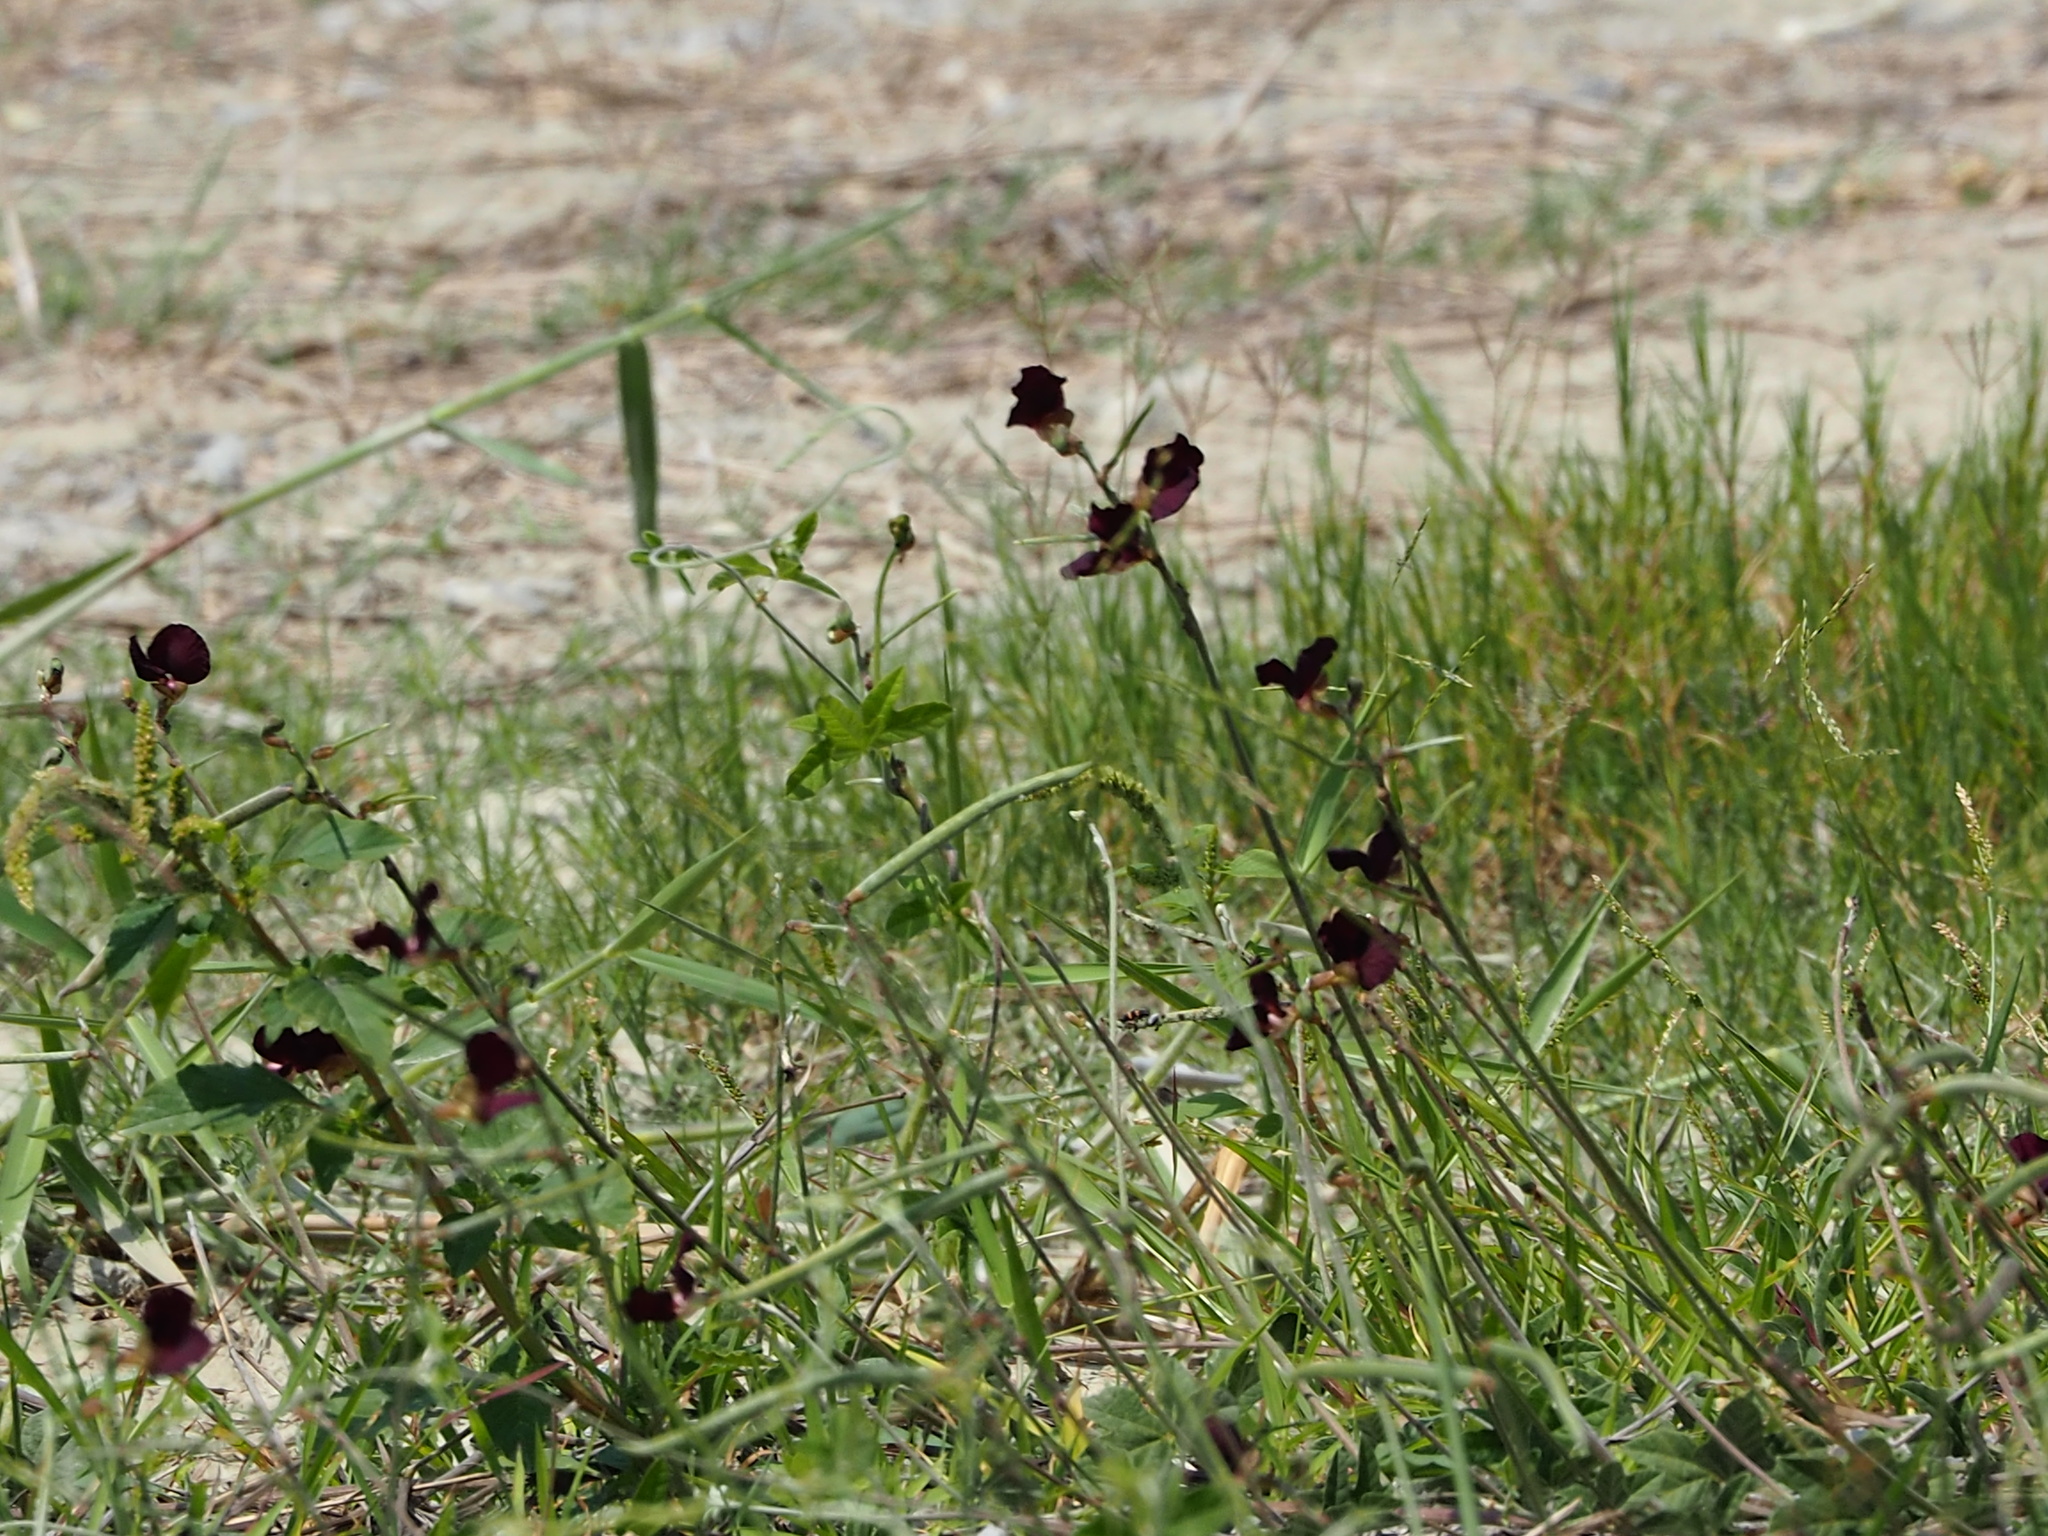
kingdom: Plantae
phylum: Tracheophyta
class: Magnoliopsida
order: Fabales
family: Fabaceae
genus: Macroptilium
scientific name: Macroptilium atropurpureum
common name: Purple bushbean
